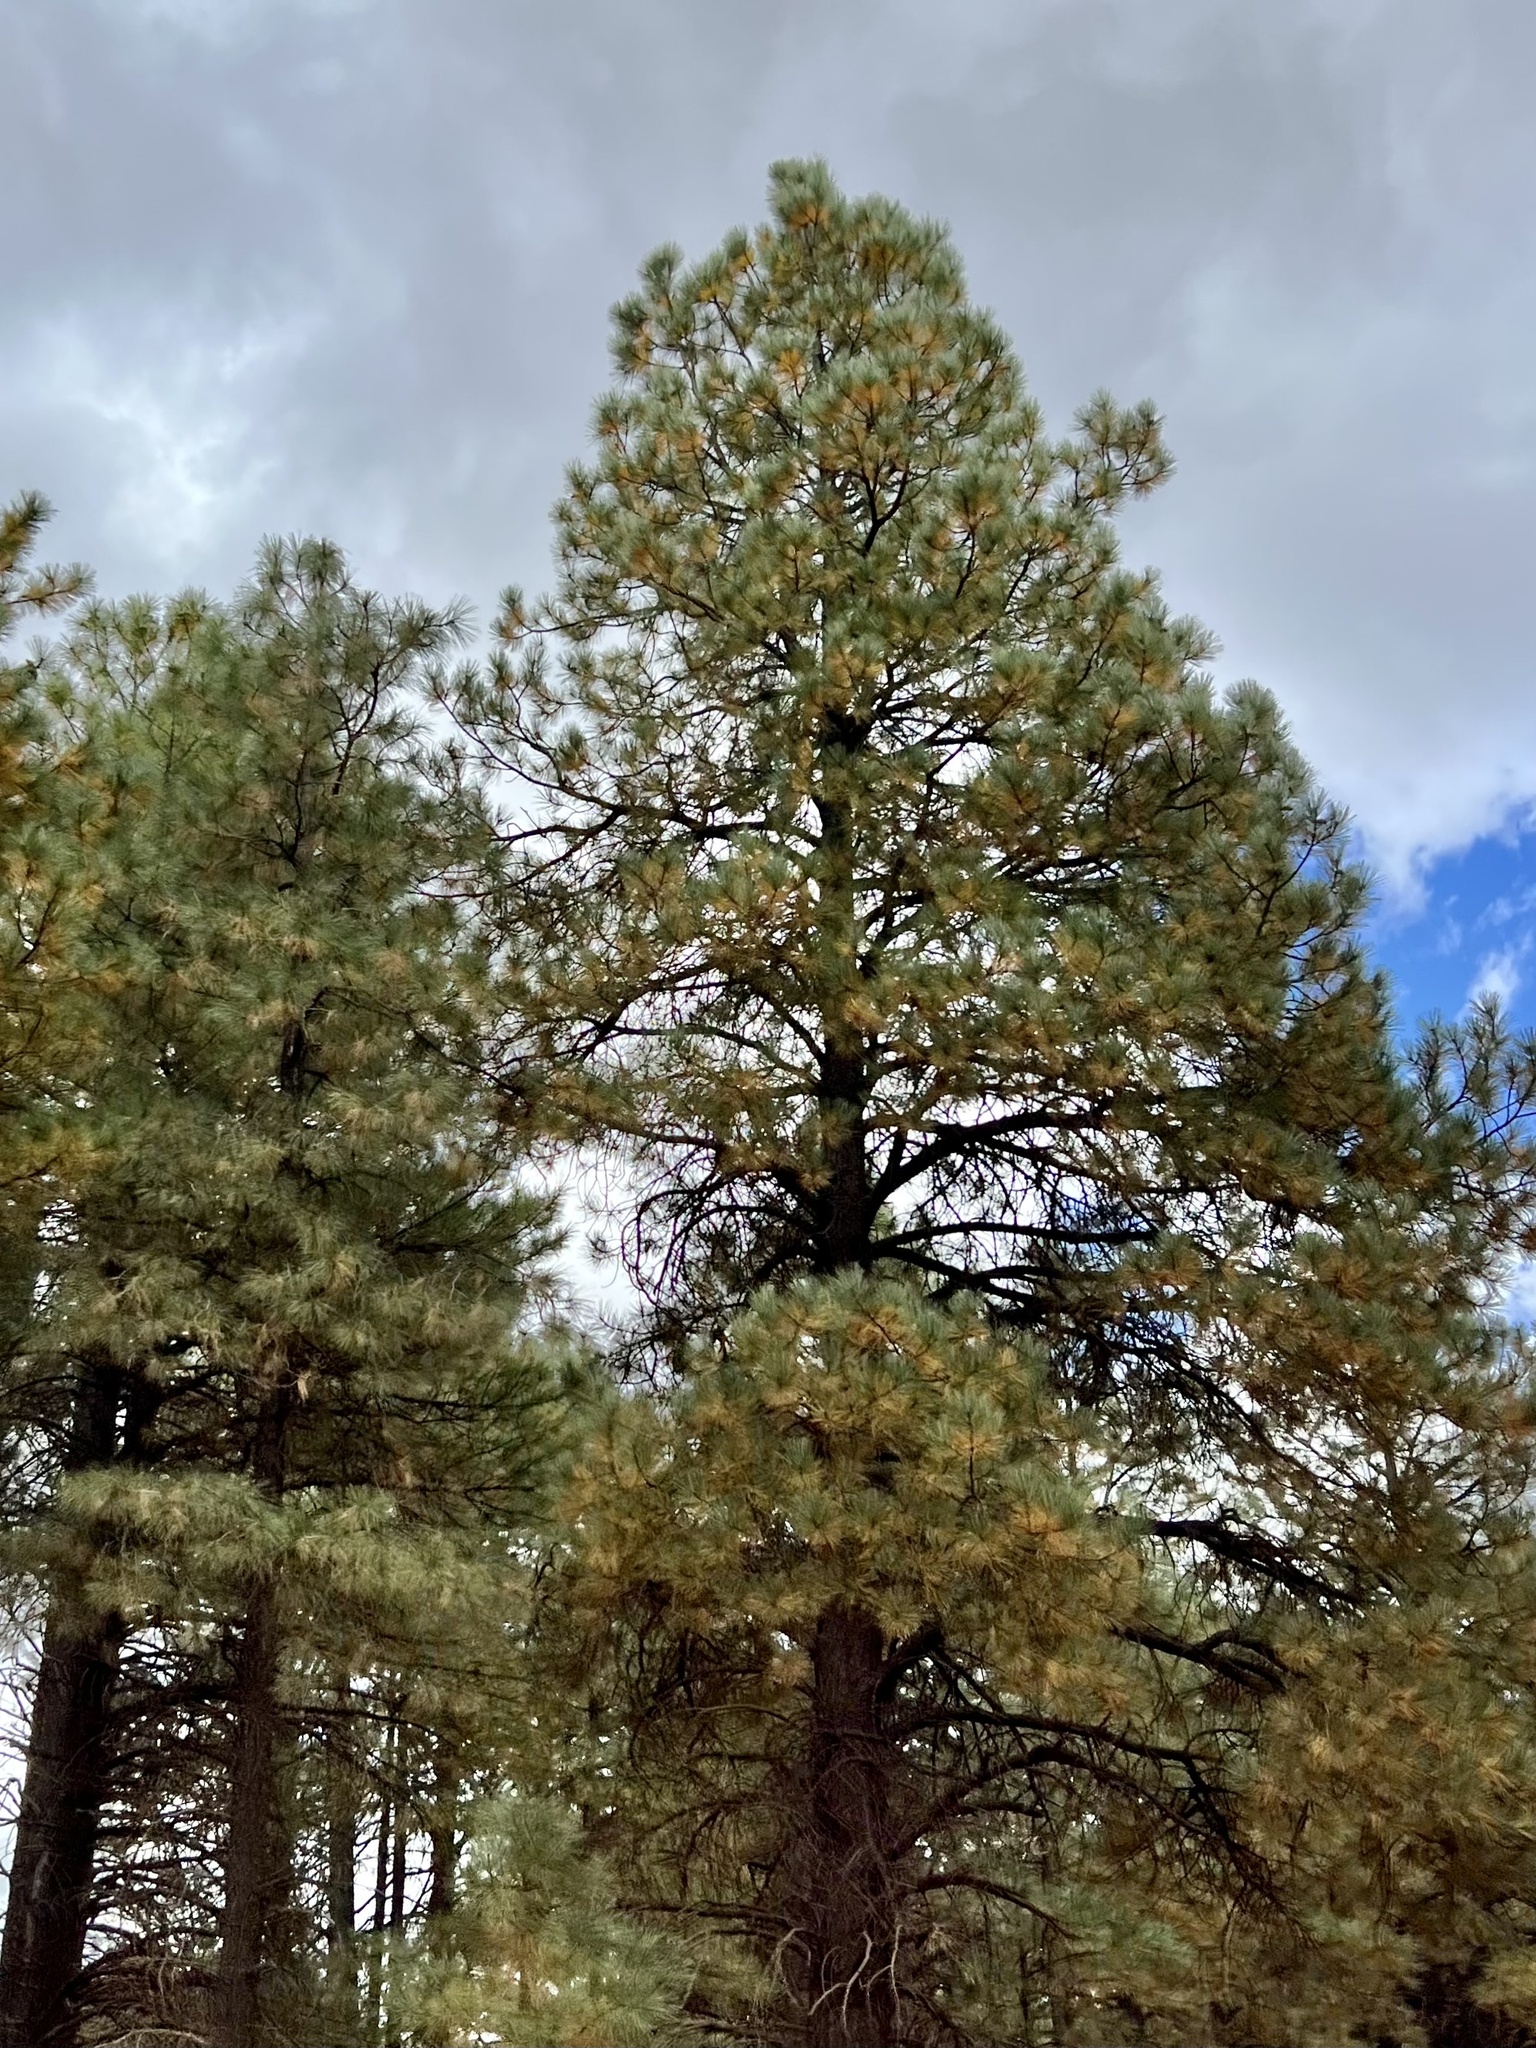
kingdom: Plantae
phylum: Tracheophyta
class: Pinopsida
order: Pinales
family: Pinaceae
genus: Pinus
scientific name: Pinus ponderosa
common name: Western yellow-pine
